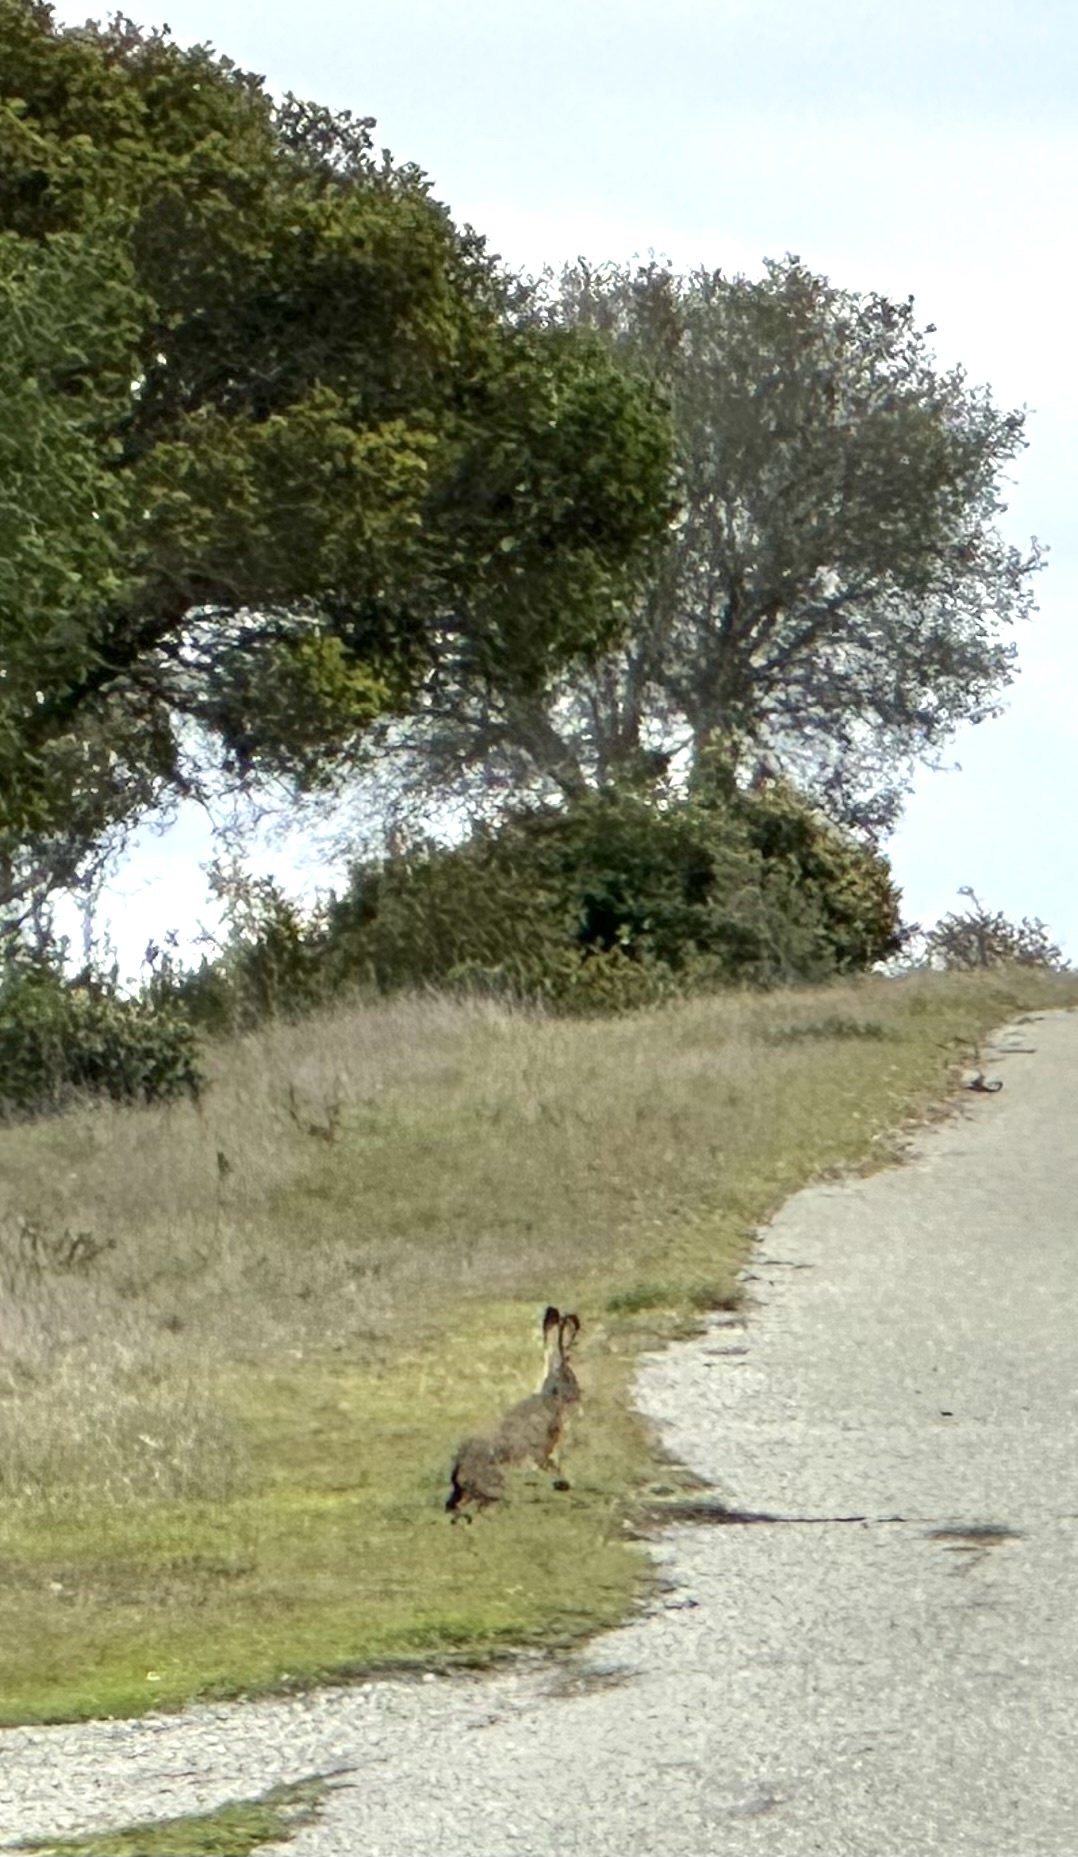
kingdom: Animalia
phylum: Chordata
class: Mammalia
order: Lagomorpha
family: Leporidae
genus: Lepus
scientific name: Lepus californicus
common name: Black-tailed jackrabbit
